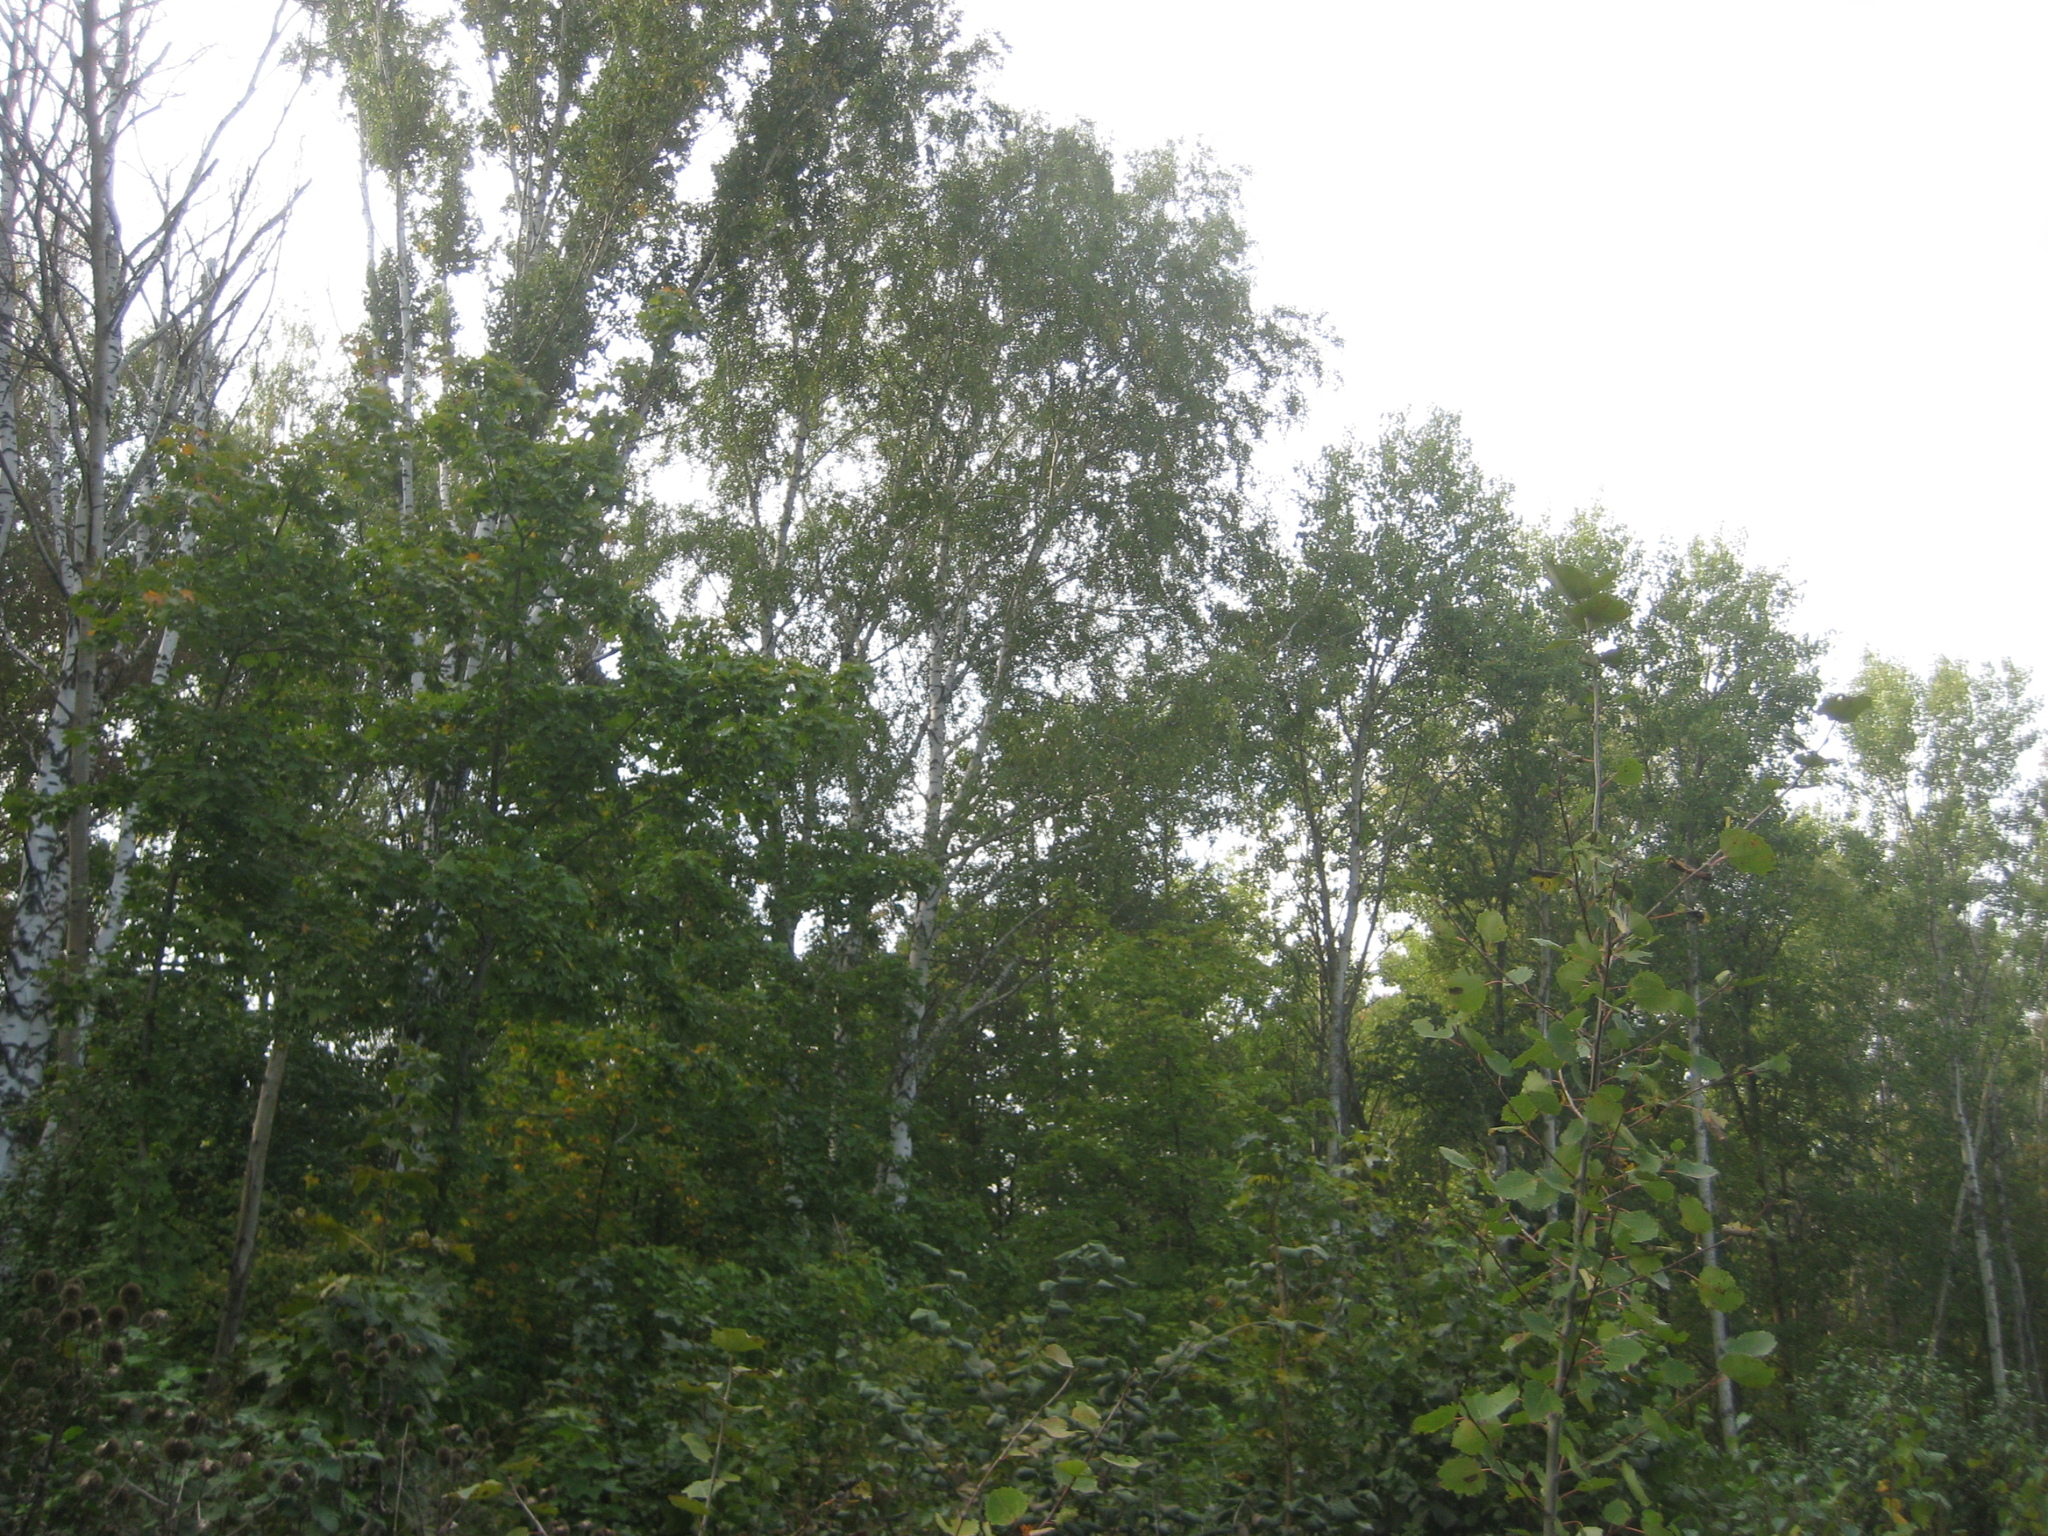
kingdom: Plantae
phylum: Tracheophyta
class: Magnoliopsida
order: Fagales
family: Betulaceae
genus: Betula
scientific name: Betula pendula
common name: Silver birch
